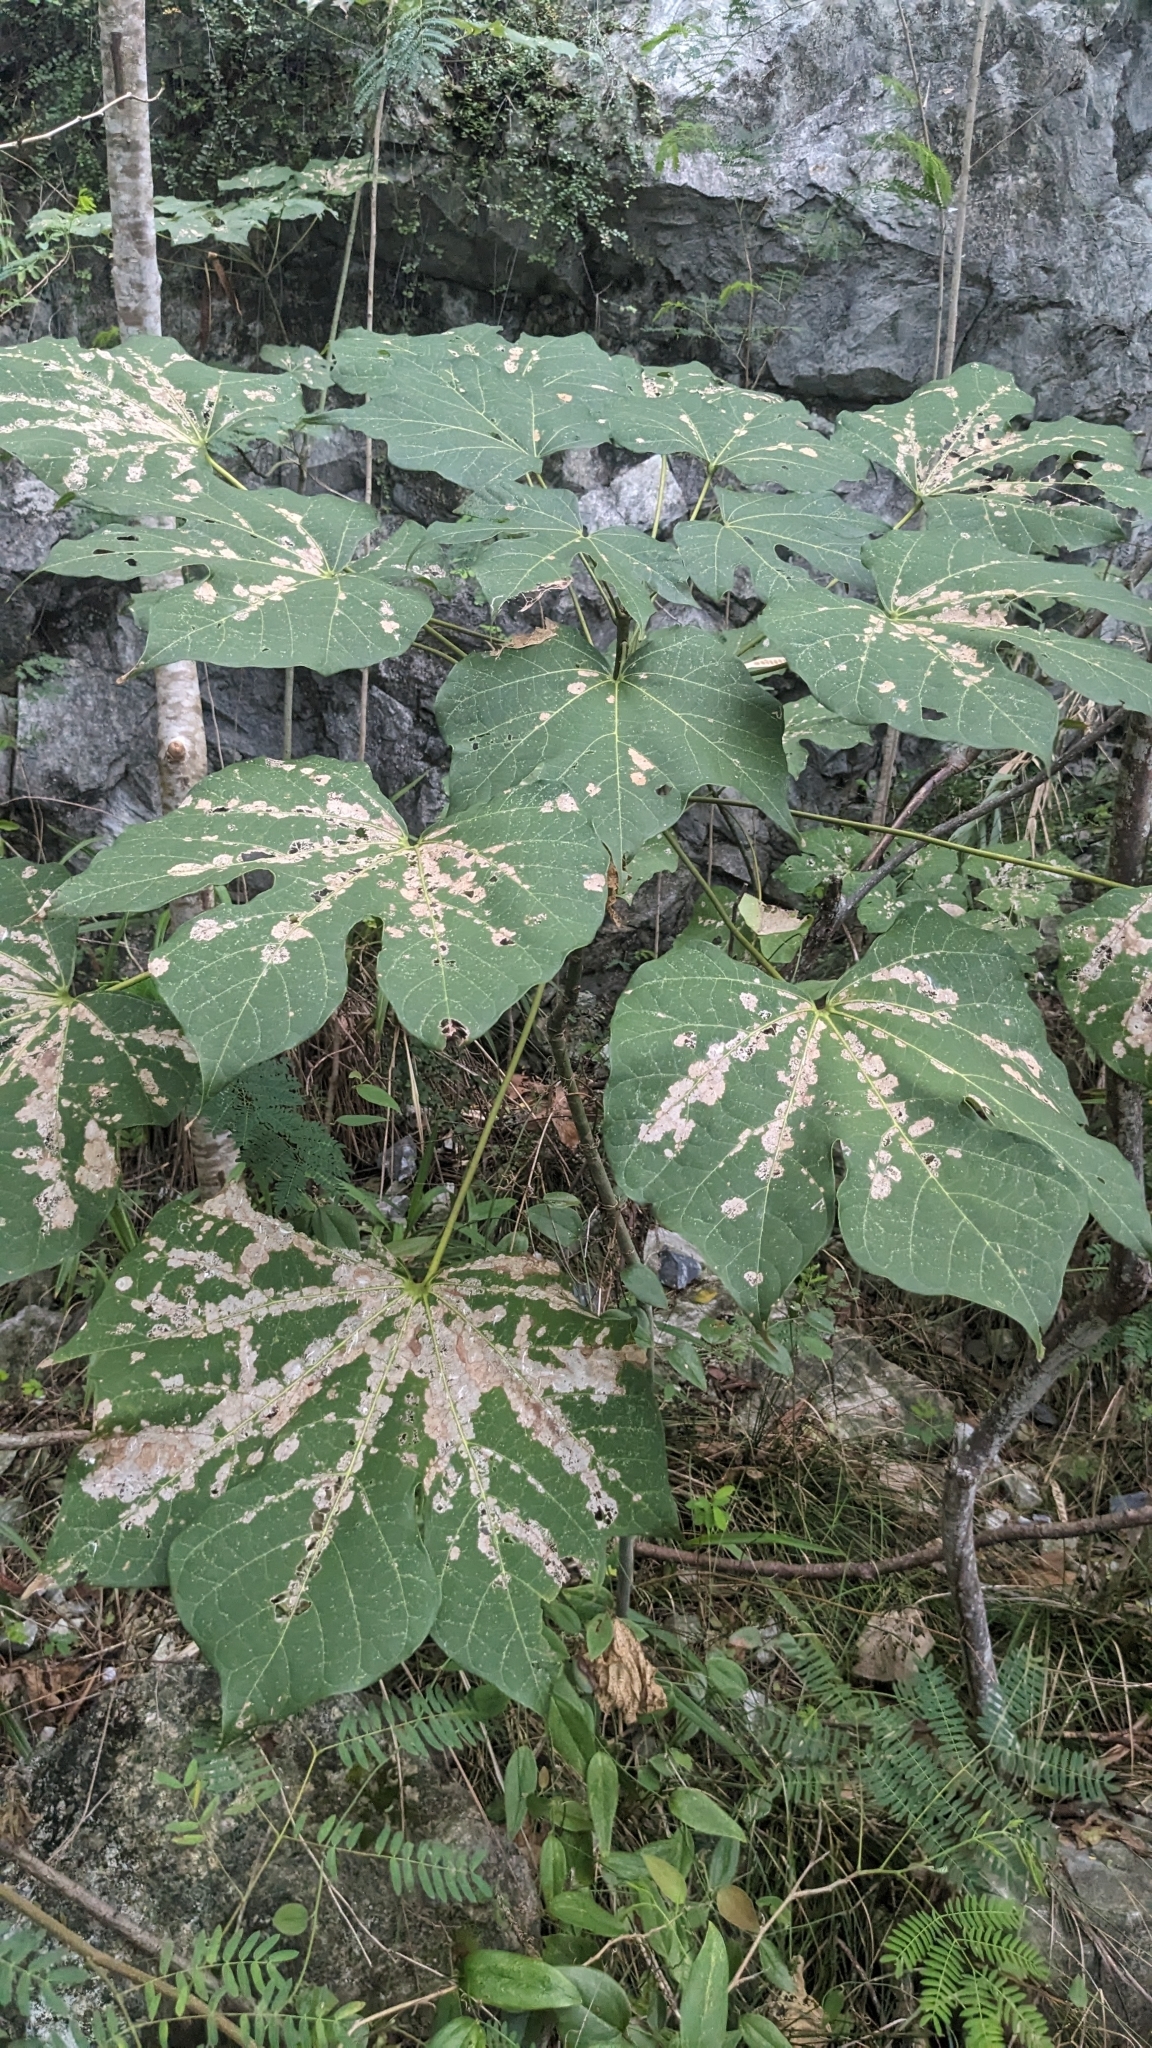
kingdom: Plantae
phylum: Tracheophyta
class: Magnoliopsida
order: Malvales
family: Malvaceae
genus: Firmiana
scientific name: Firmiana simplex
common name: Chinese parasoltree
